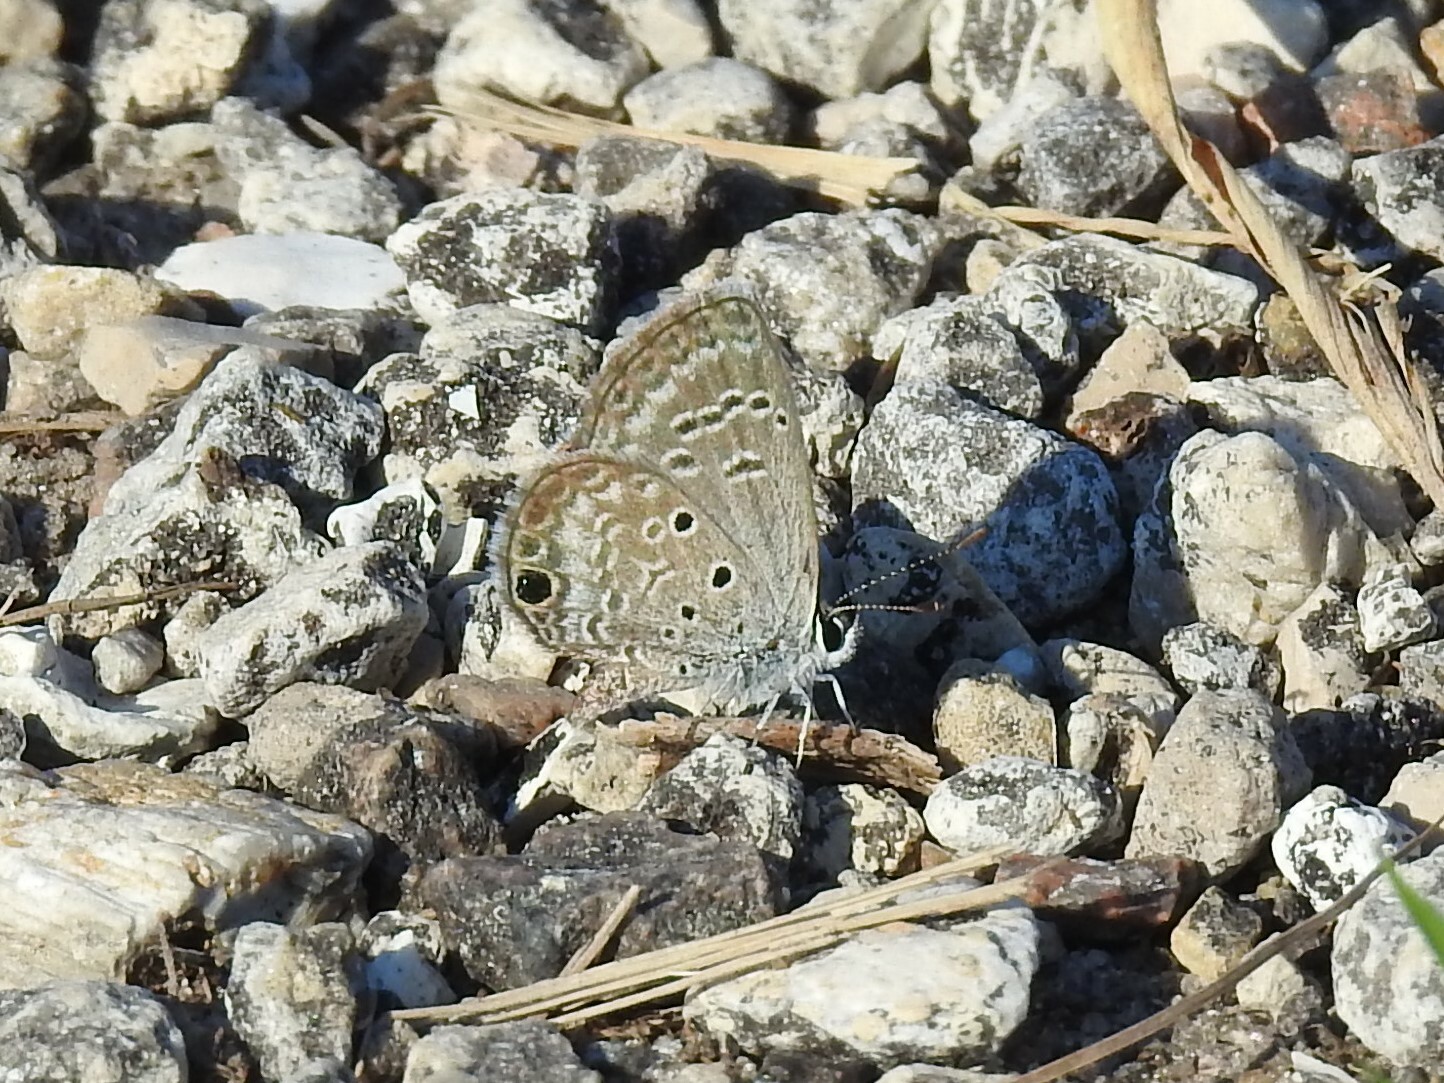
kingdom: Animalia
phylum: Arthropoda
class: Insecta
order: Lepidoptera
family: Lycaenidae
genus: Hemiargus
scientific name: Hemiargus ceraunus
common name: Ceraunus blue
